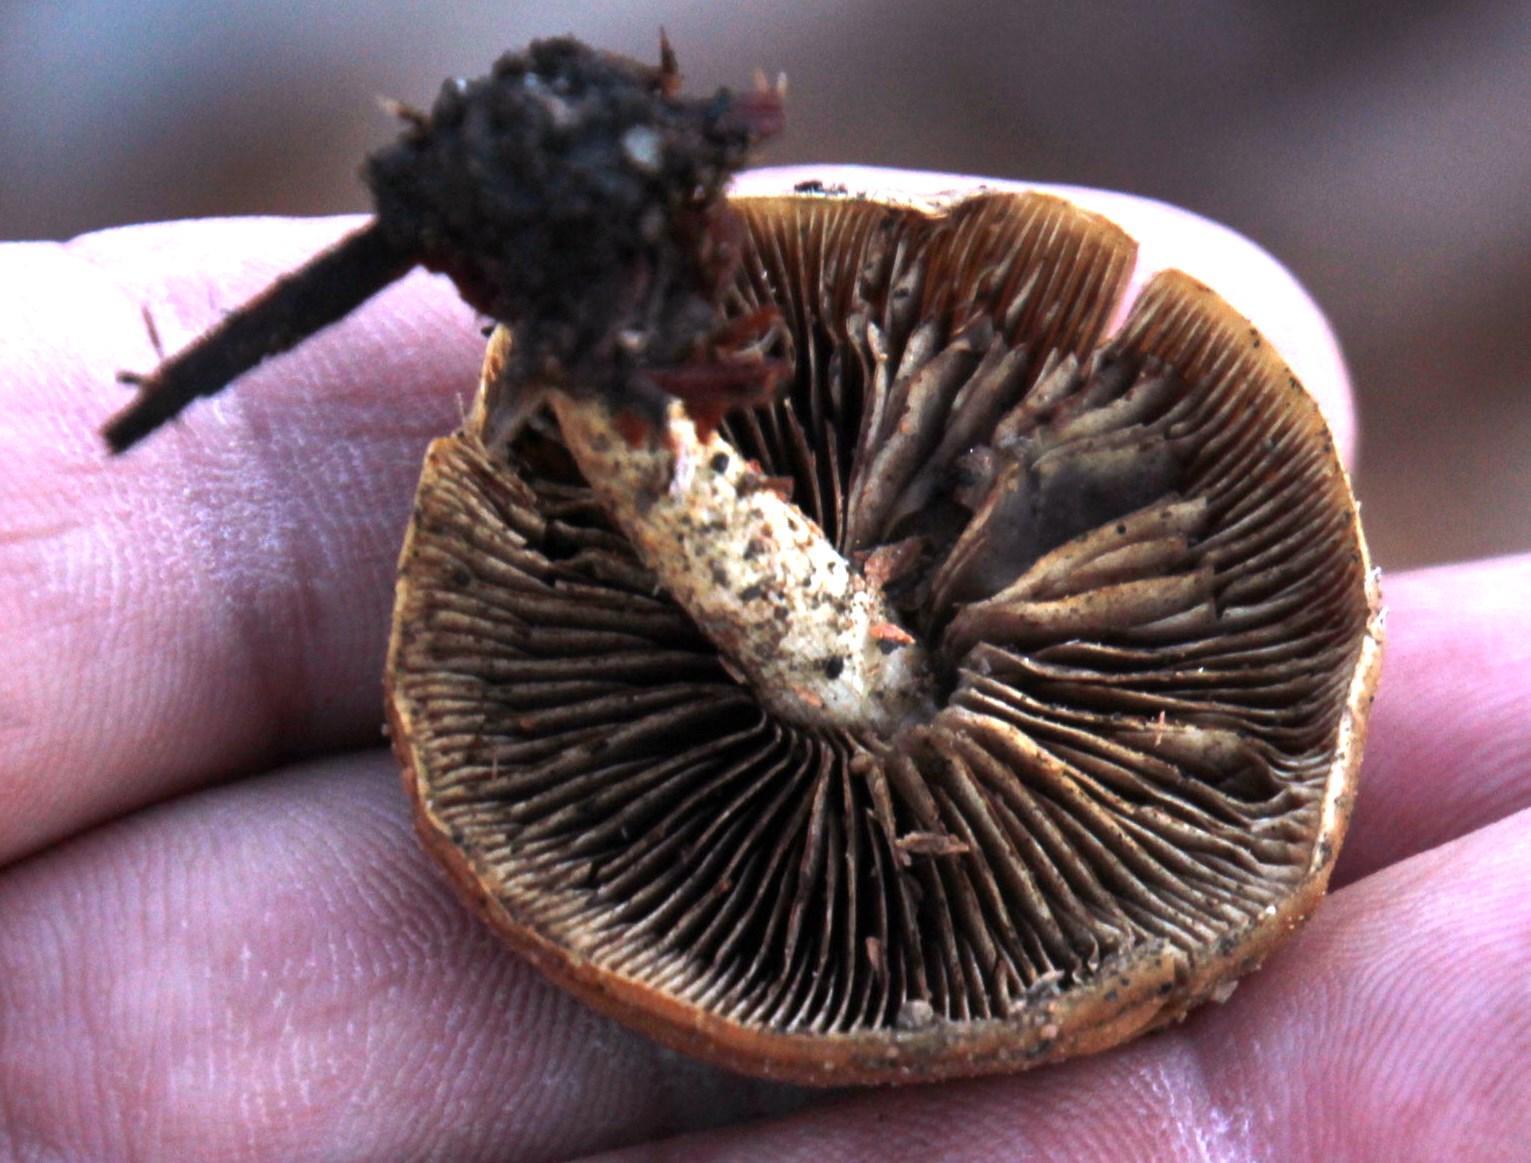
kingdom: Fungi
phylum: Basidiomycota
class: Agaricomycetes
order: Agaricales
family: Strophariaceae
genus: Agrocybe
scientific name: Agrocybe rivulosa
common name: Wrinkled fieldcap
